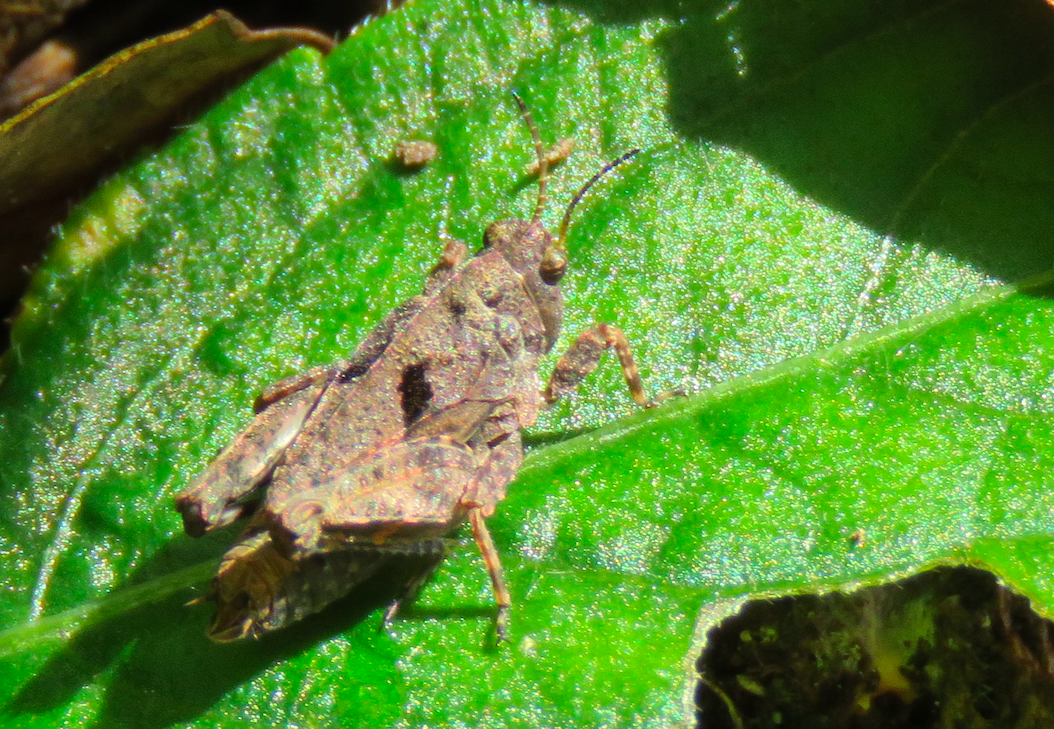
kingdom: Animalia
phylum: Arthropoda
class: Insecta
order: Orthoptera
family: Tetrigidae
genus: Tetrix
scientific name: Tetrix transsylvanica
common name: Transsylvanian wingless groundhopper
